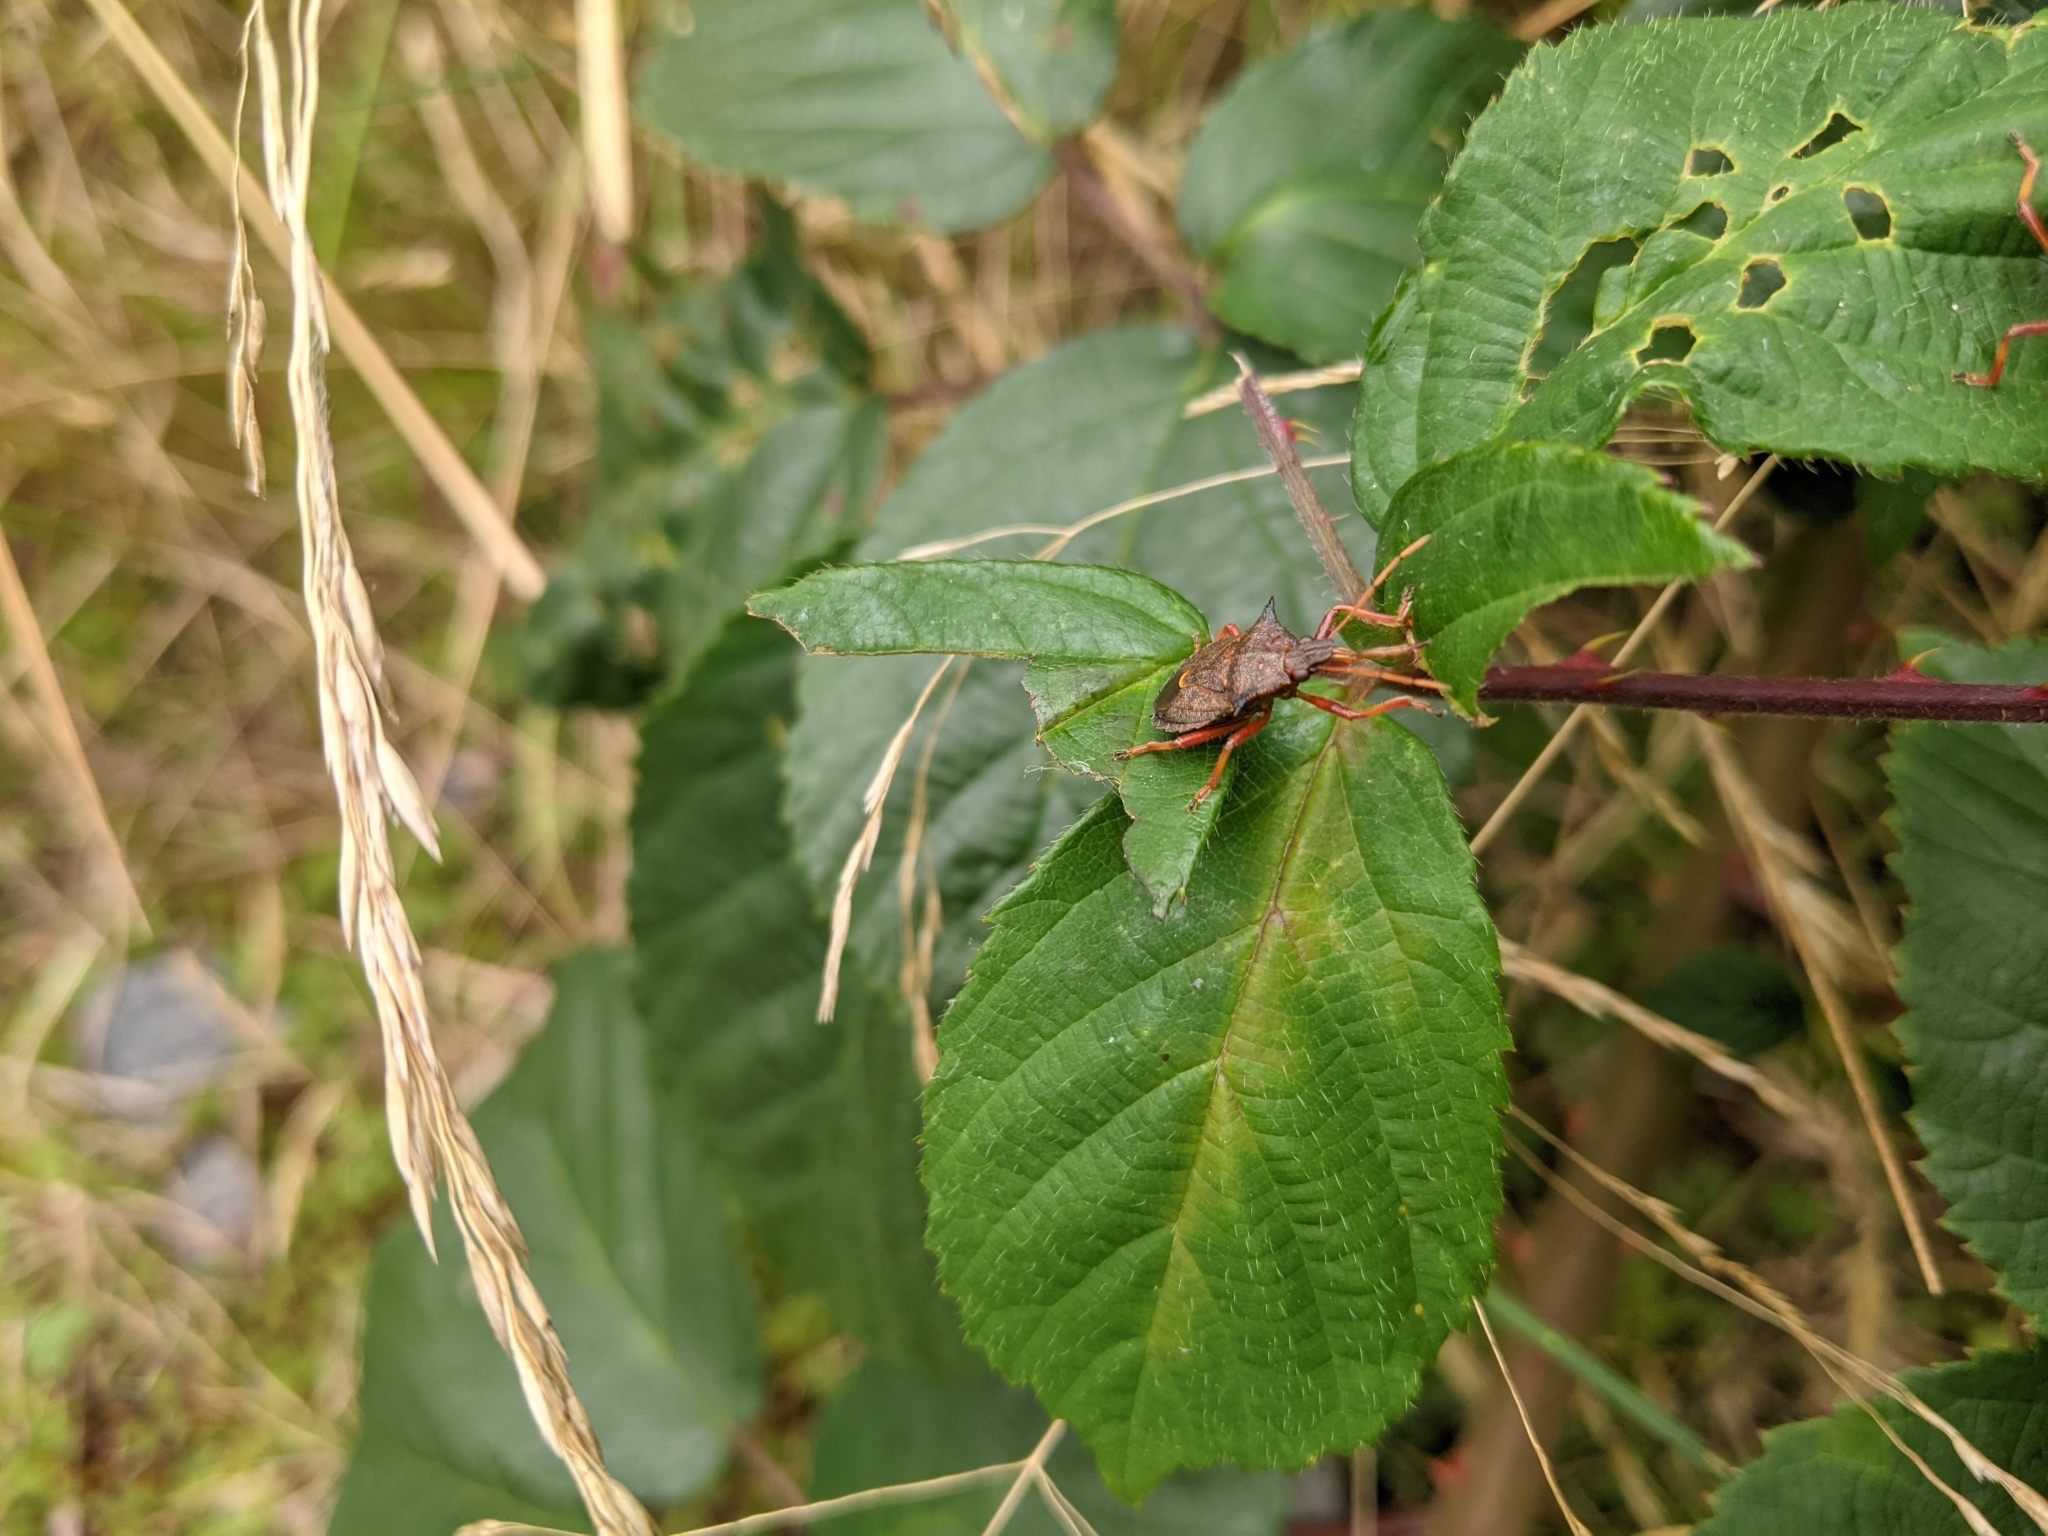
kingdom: Animalia
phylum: Arthropoda
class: Insecta
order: Hemiptera
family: Pentatomidae
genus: Picromerus
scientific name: Picromerus bidens
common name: Spiked shieldbug
